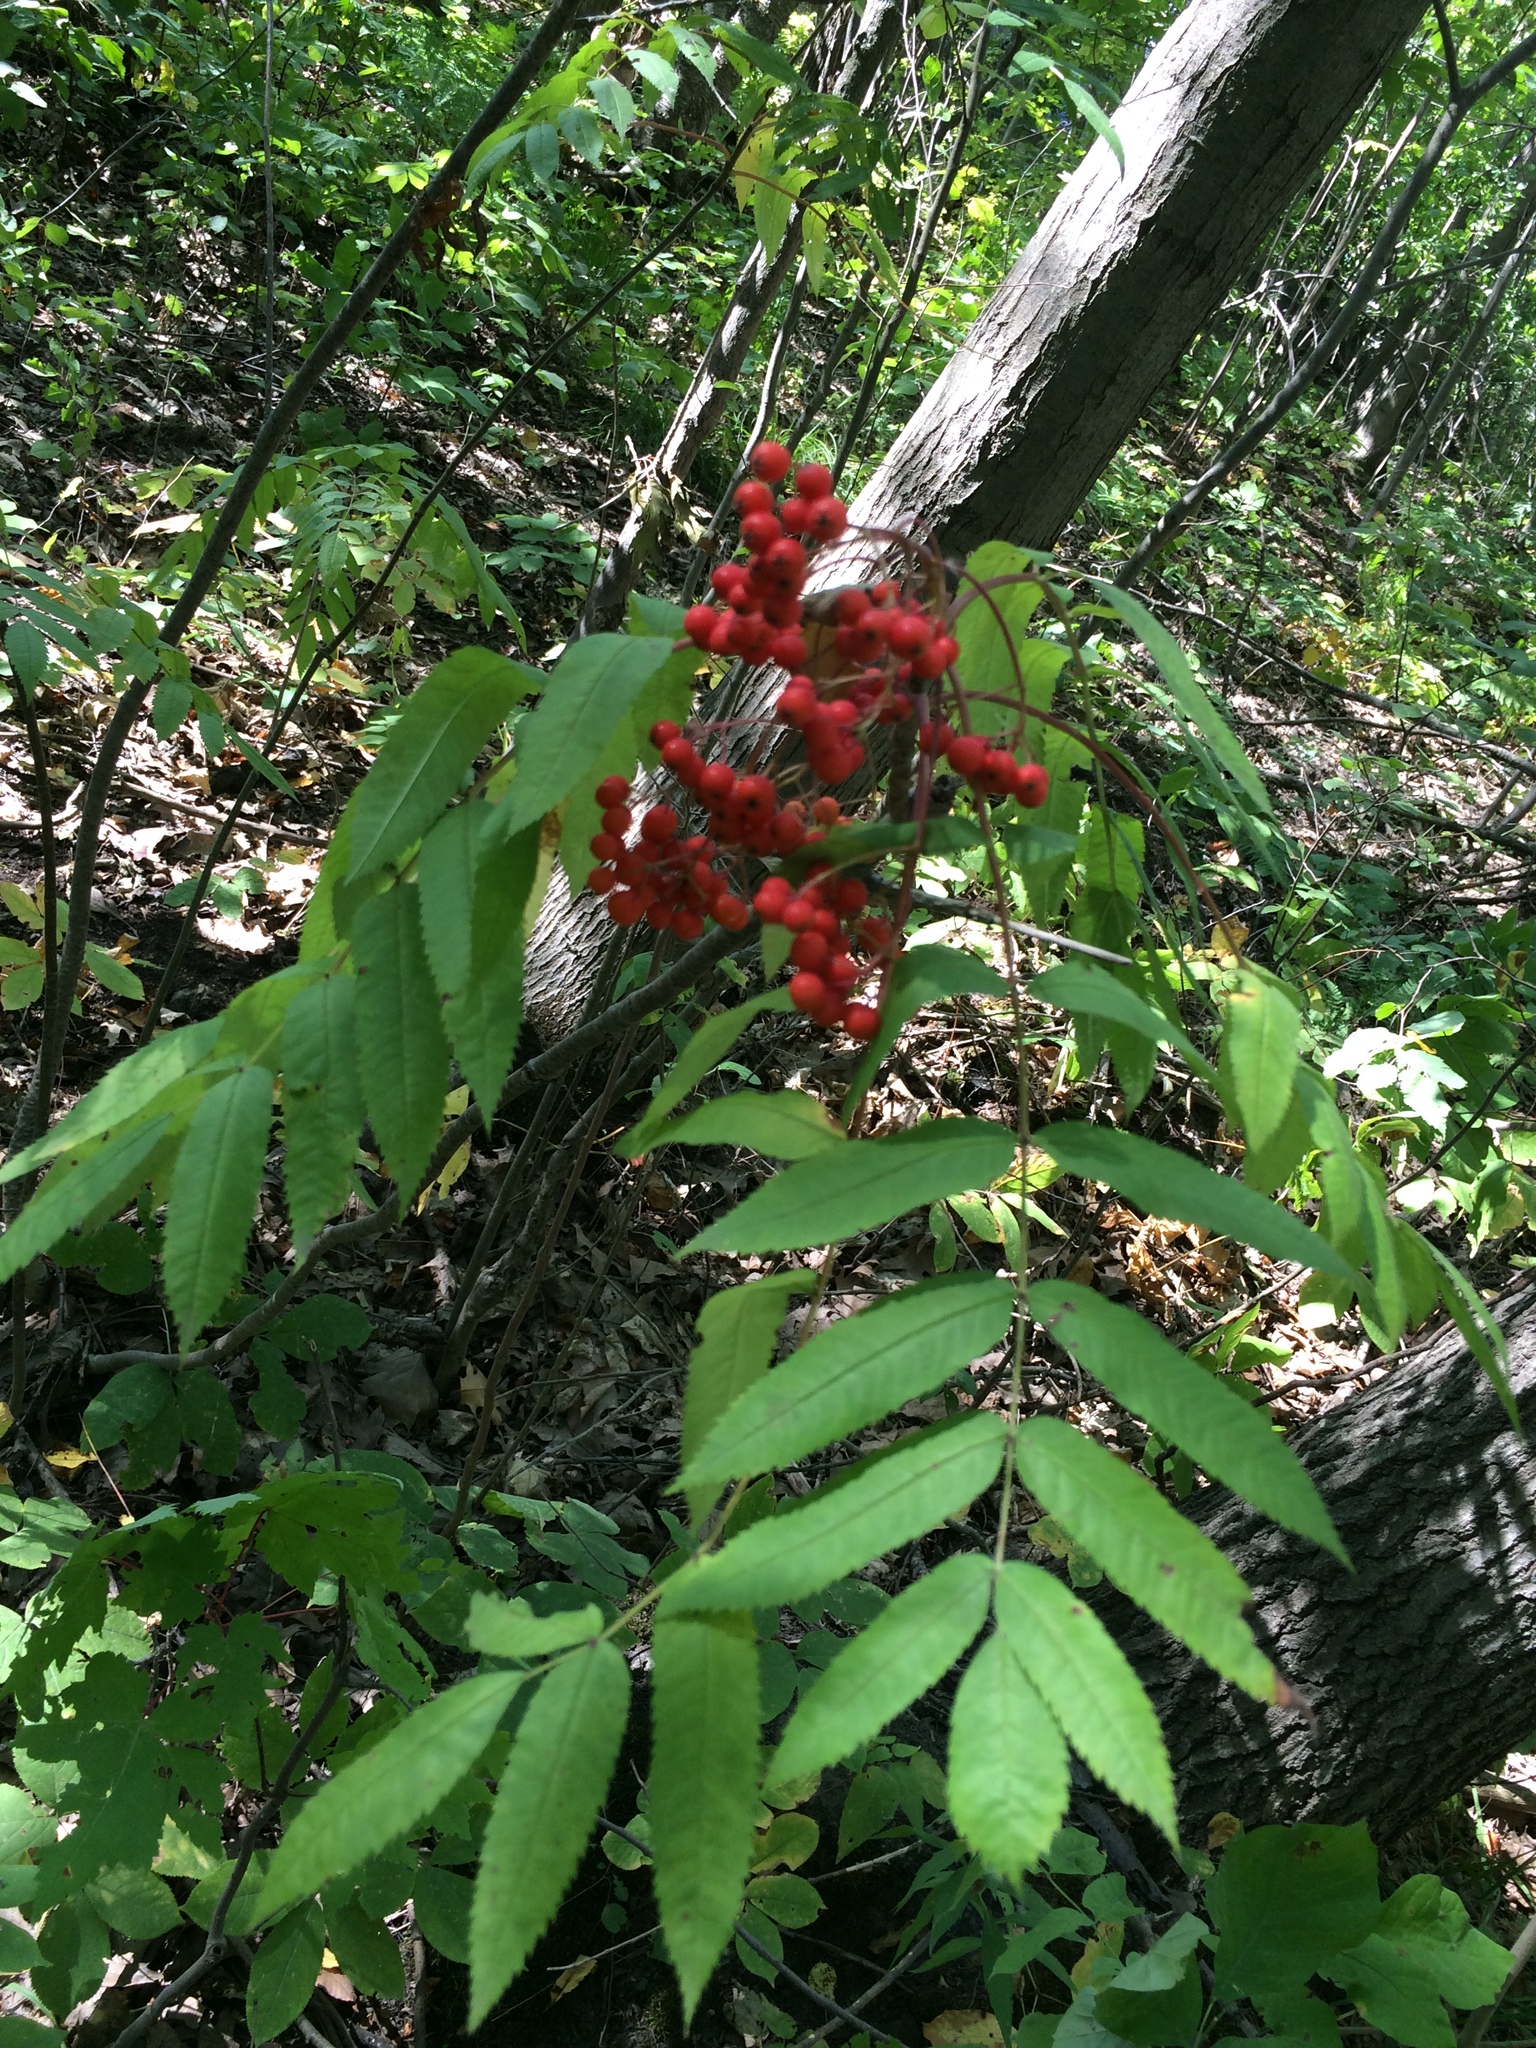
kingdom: Plantae
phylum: Tracheophyta
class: Magnoliopsida
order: Rosales
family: Rosaceae
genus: Sorbus
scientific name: Sorbus americana
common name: American mountain-ash
